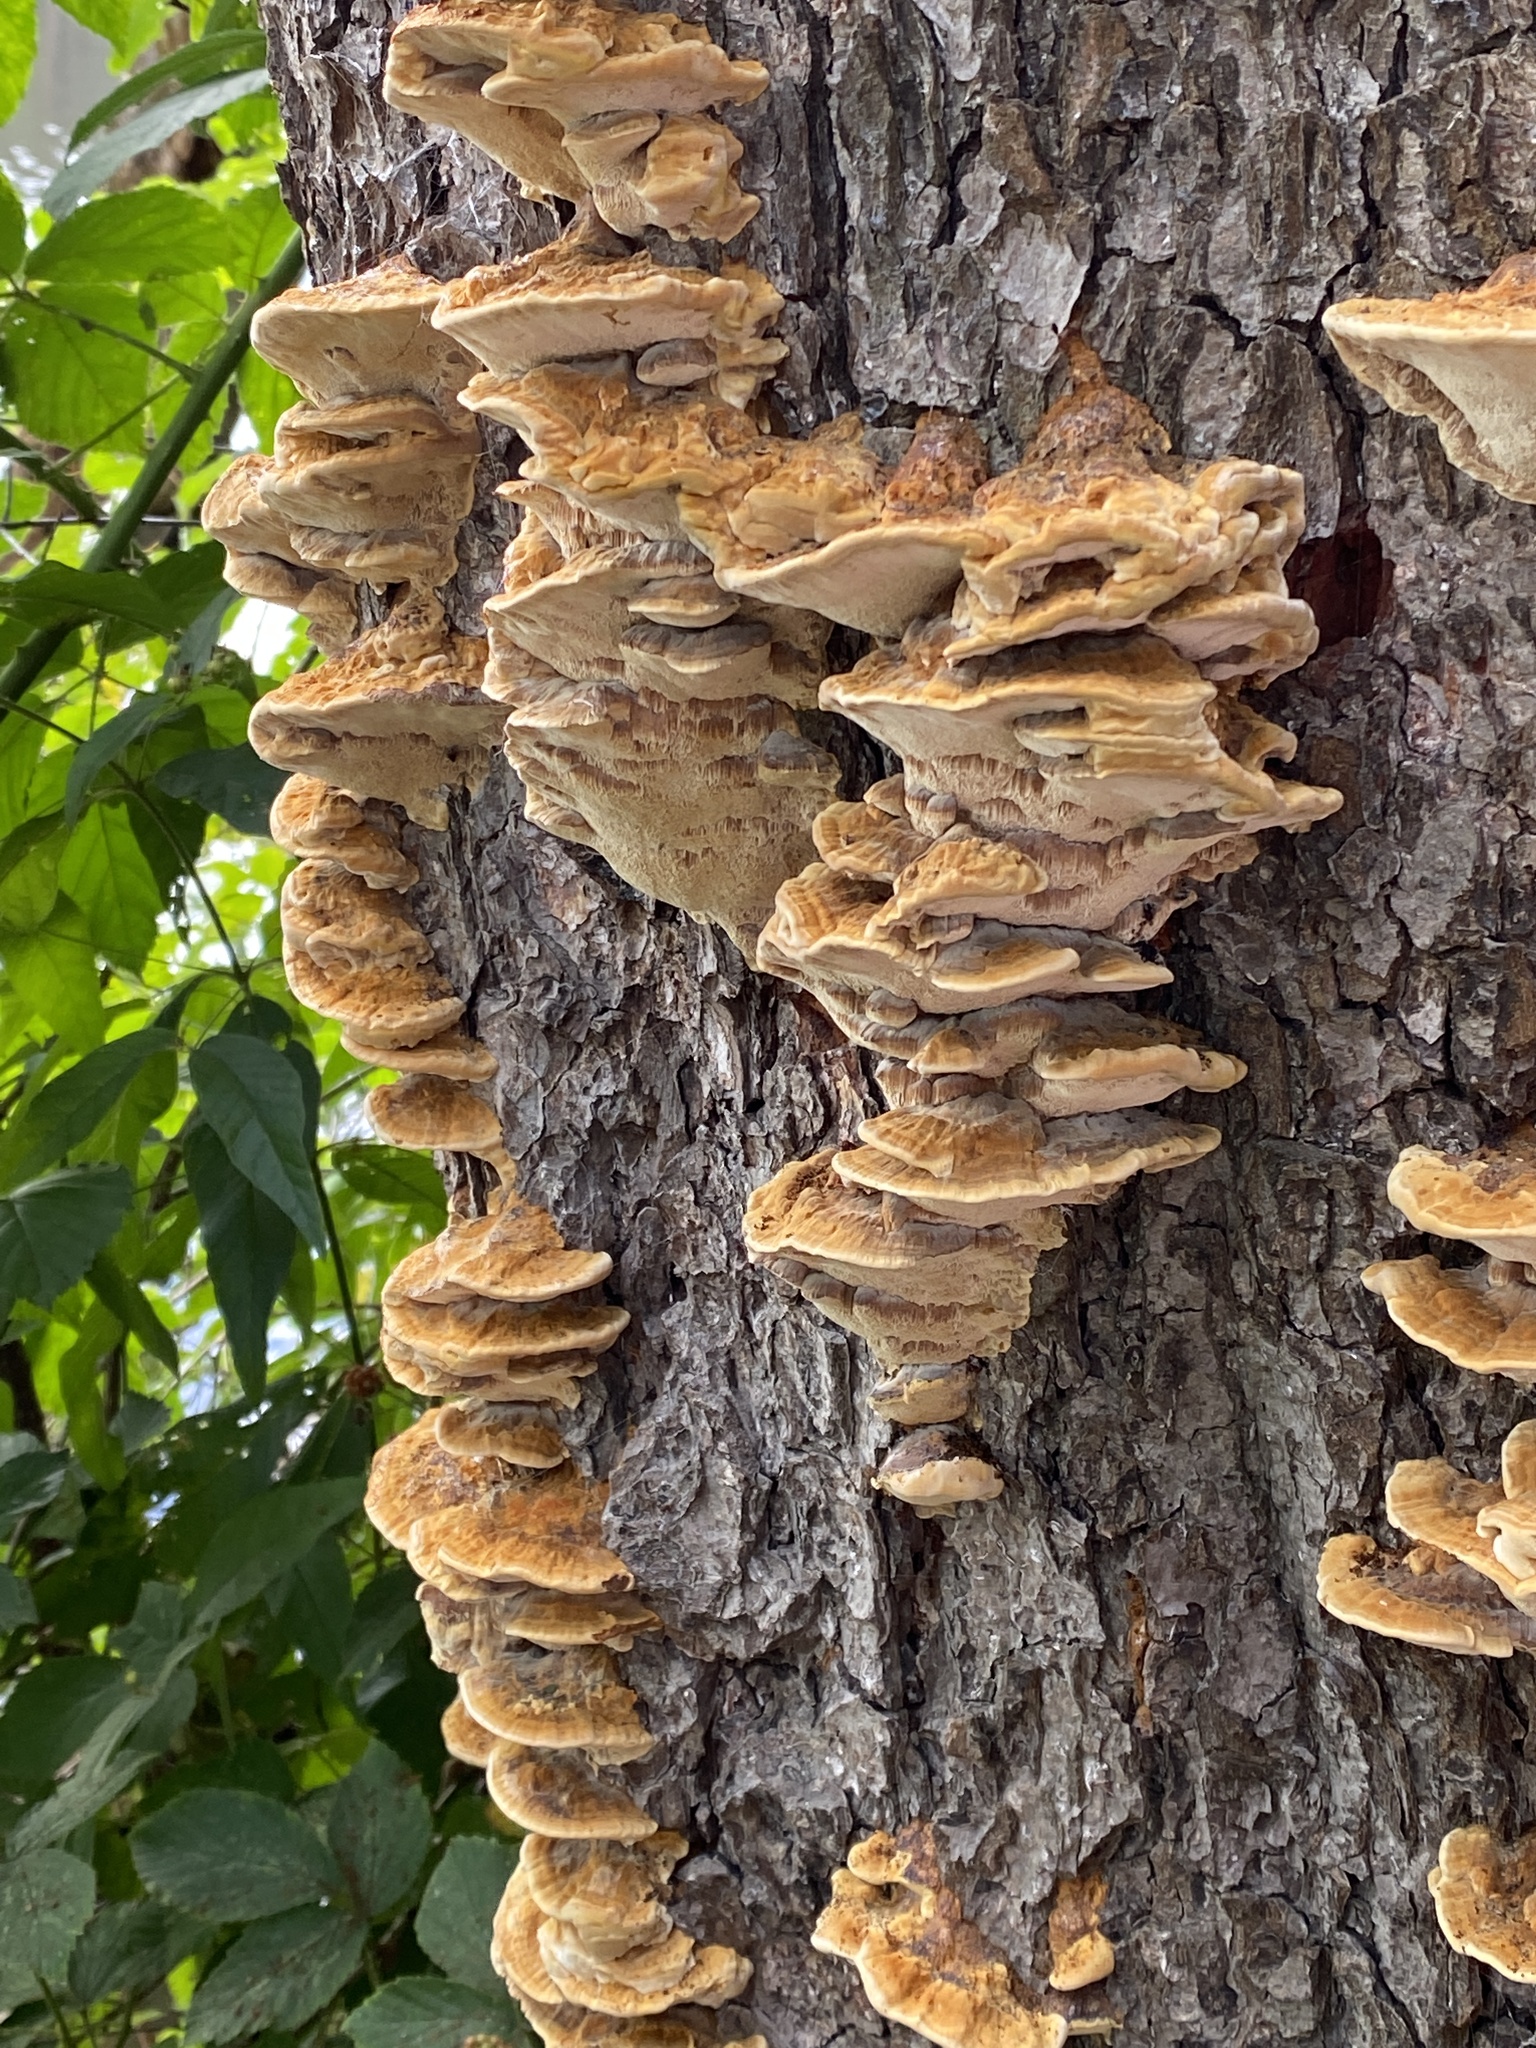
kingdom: Fungi
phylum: Basidiomycota
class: Agaricomycetes
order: Hymenochaetales
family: Hymenochaetaceae
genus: Xanthoporia
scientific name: Xanthoporia radiata
